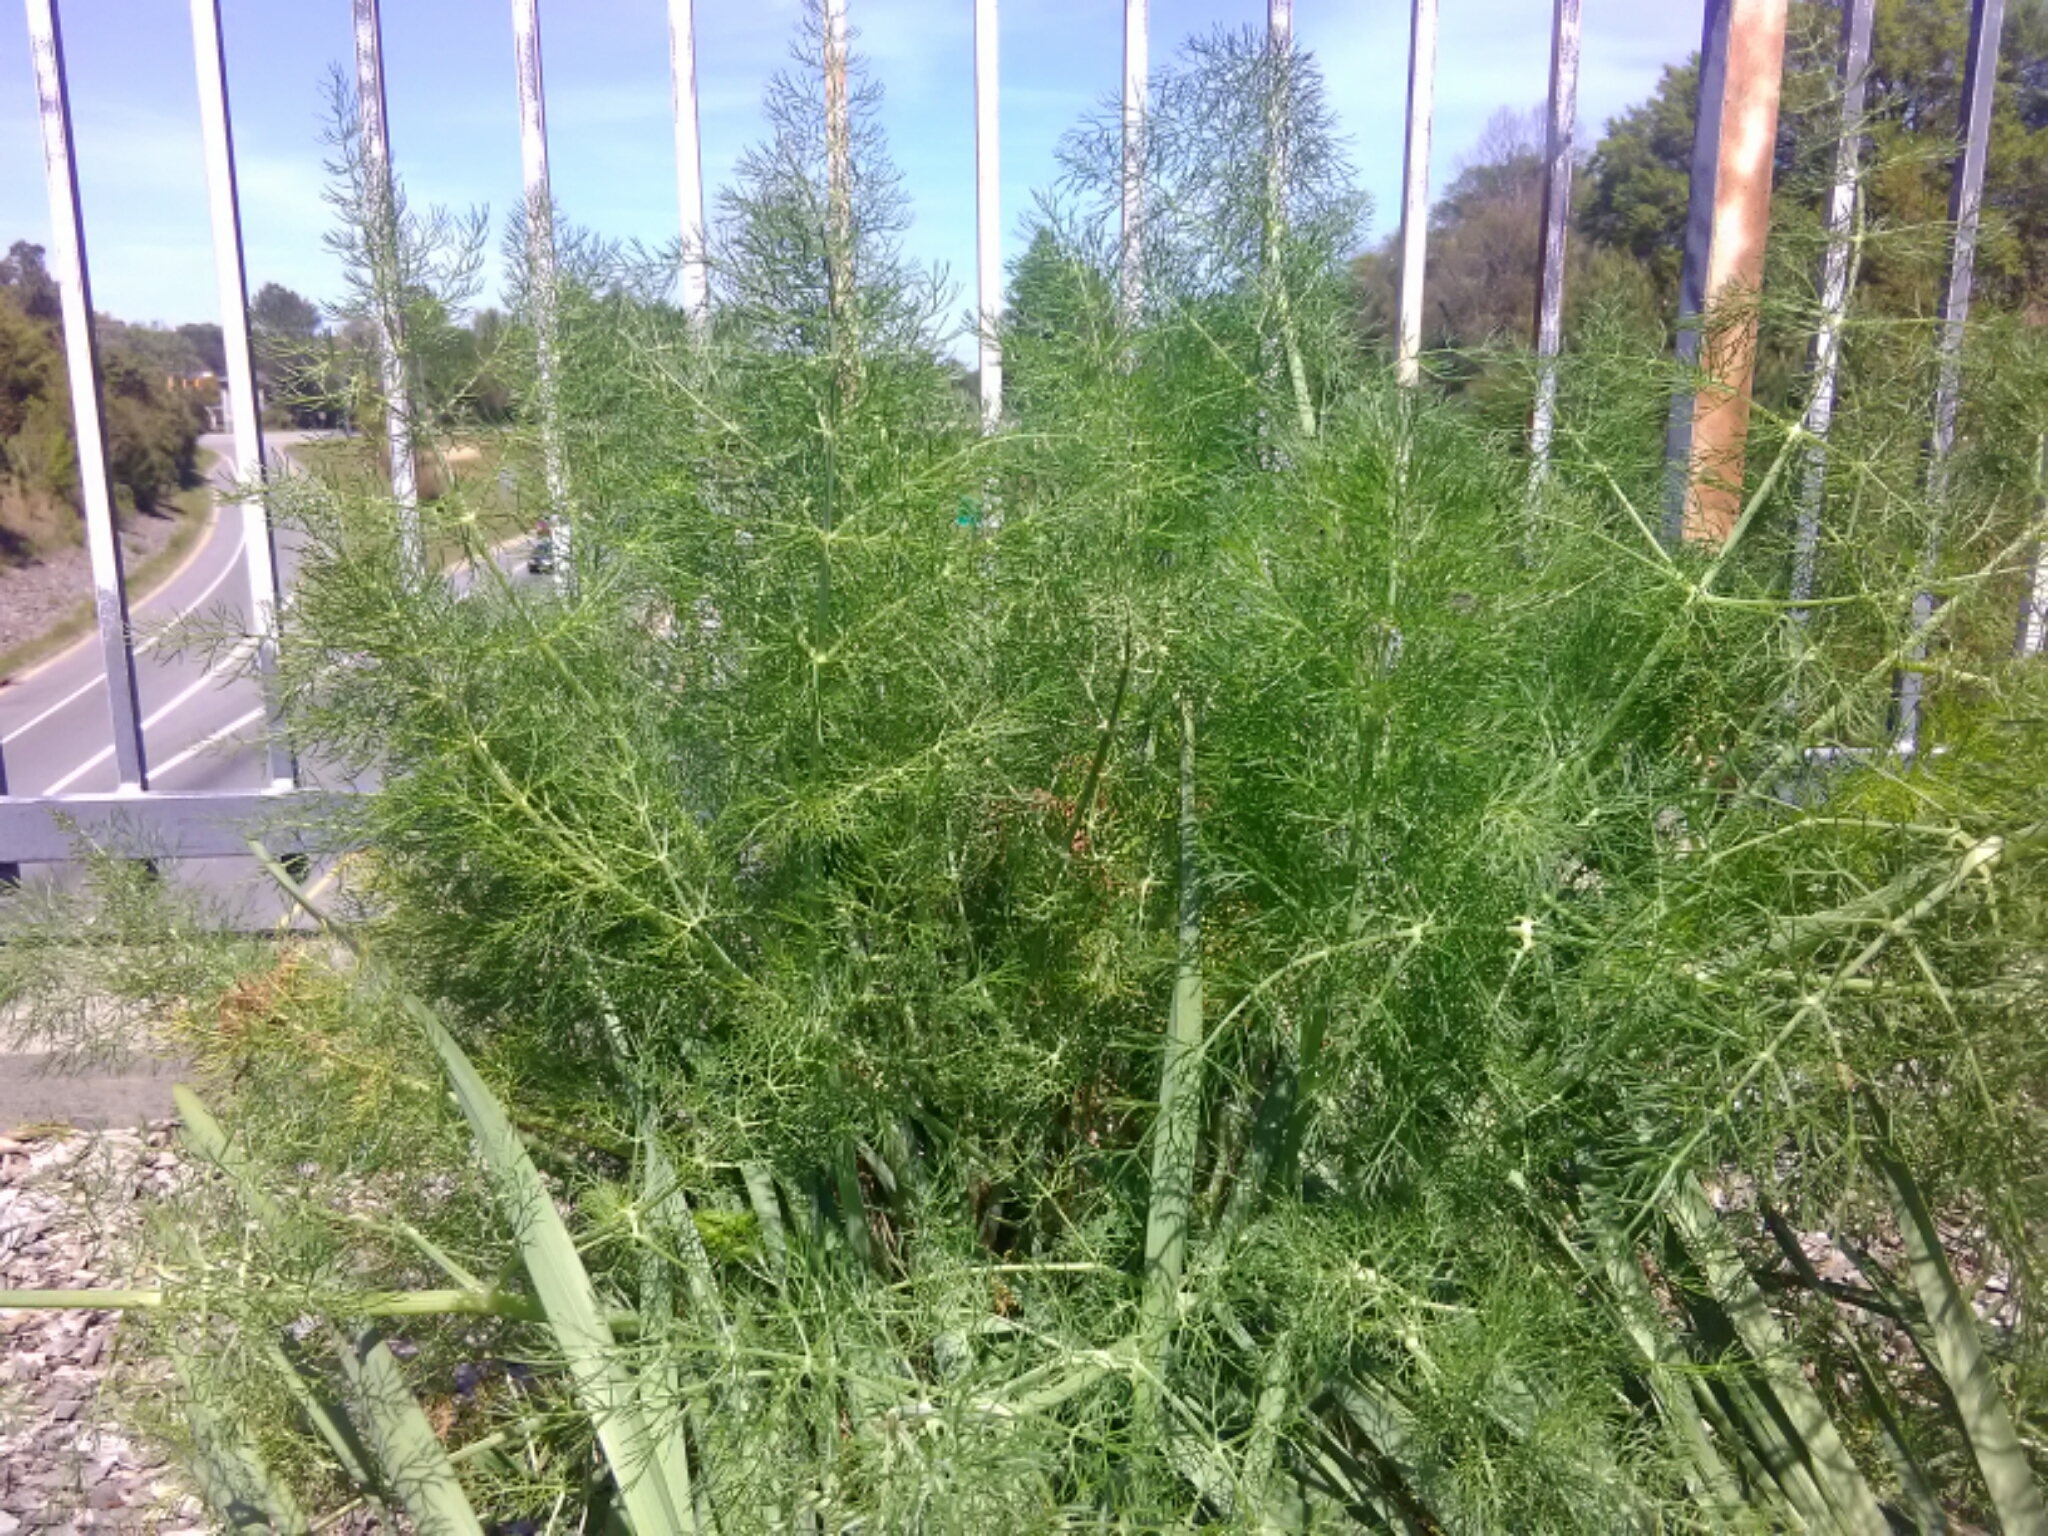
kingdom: Plantae
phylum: Tracheophyta
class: Magnoliopsida
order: Asterales
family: Asteraceae
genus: Eupatorium
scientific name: Eupatorium capillifolium
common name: Dog-fennel
